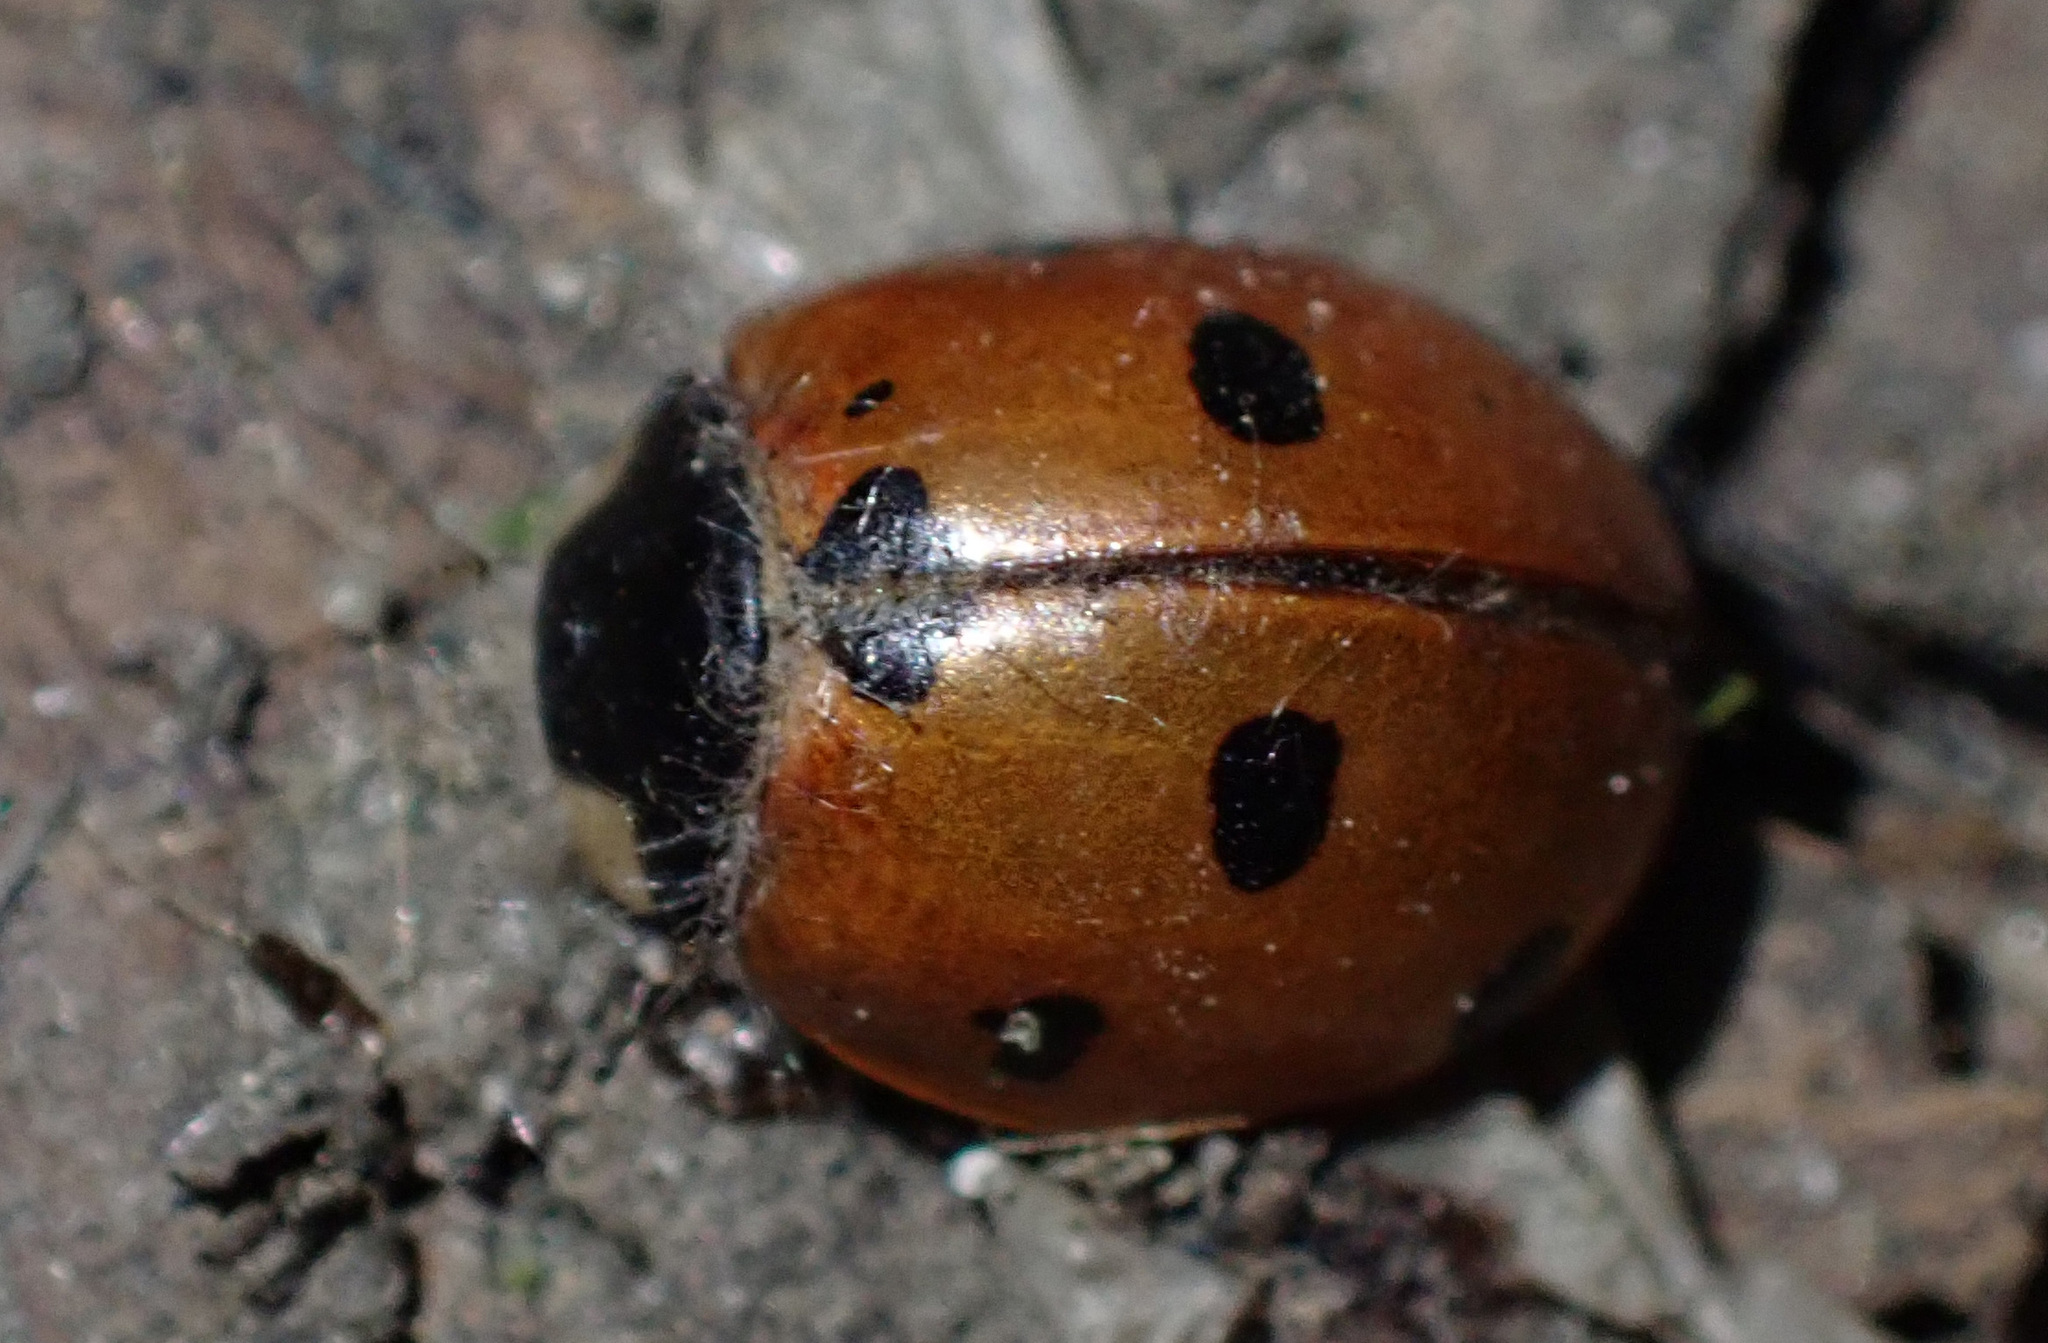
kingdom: Animalia
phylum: Arthropoda
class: Insecta
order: Coleoptera
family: Coccinellidae
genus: Coccinella
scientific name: Coccinella septempunctata
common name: Sevenspotted lady beetle
